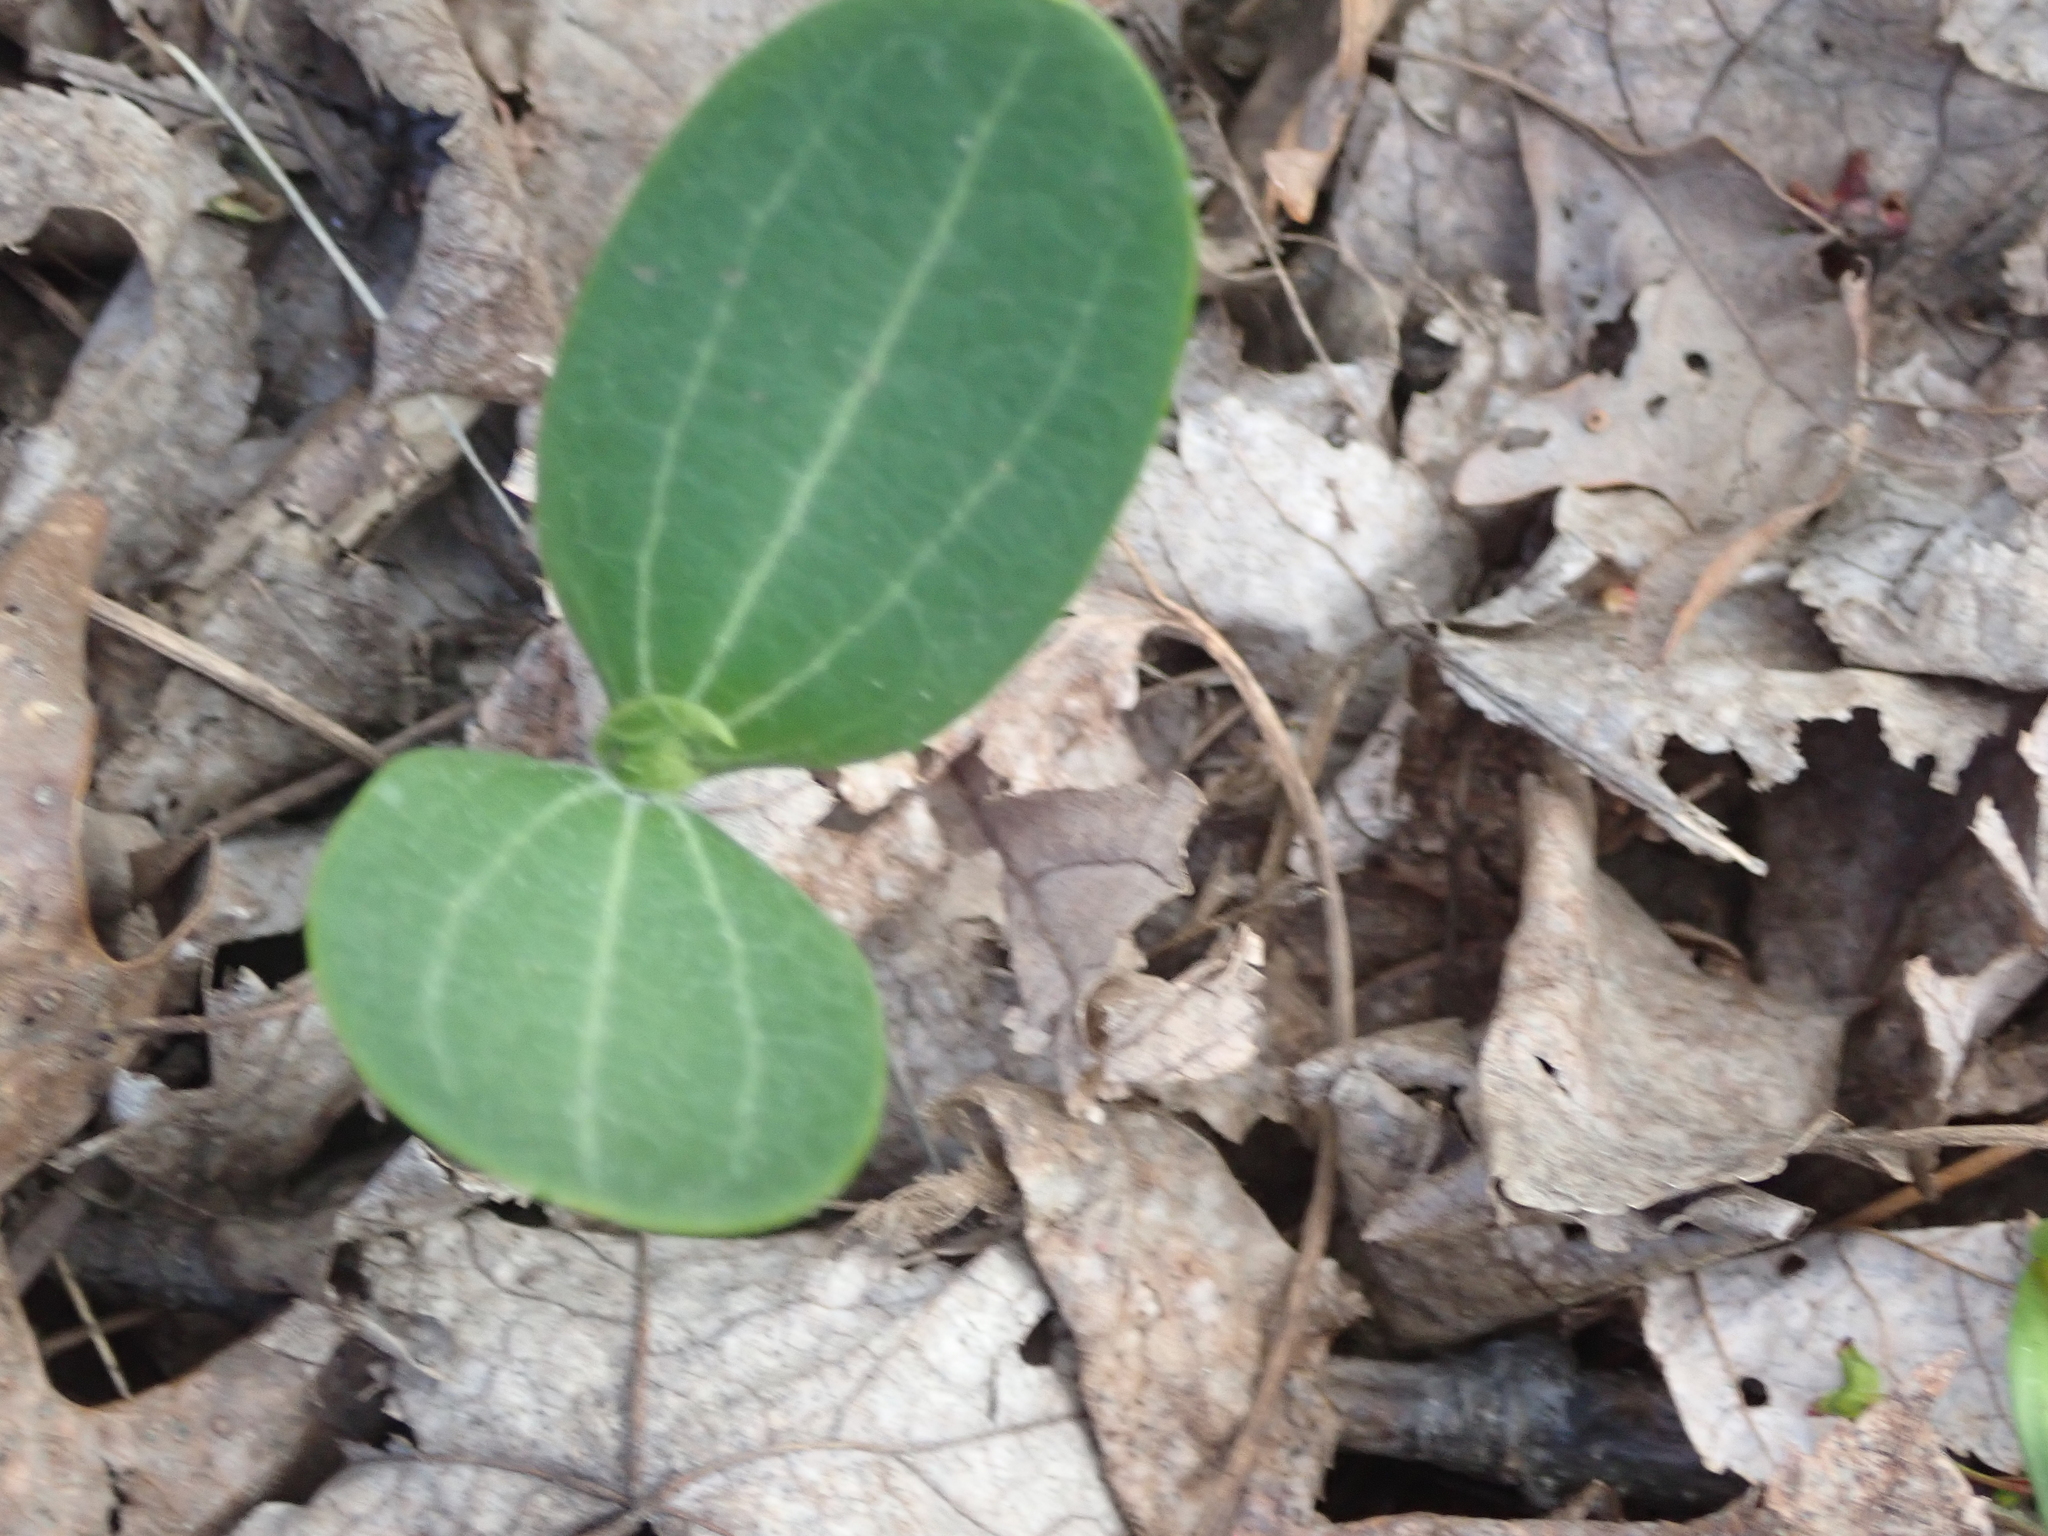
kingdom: Plantae
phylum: Tracheophyta
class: Magnoliopsida
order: Cucurbitales
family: Cucurbitaceae
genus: Echinocystis
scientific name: Echinocystis lobata
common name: Wild cucumber
